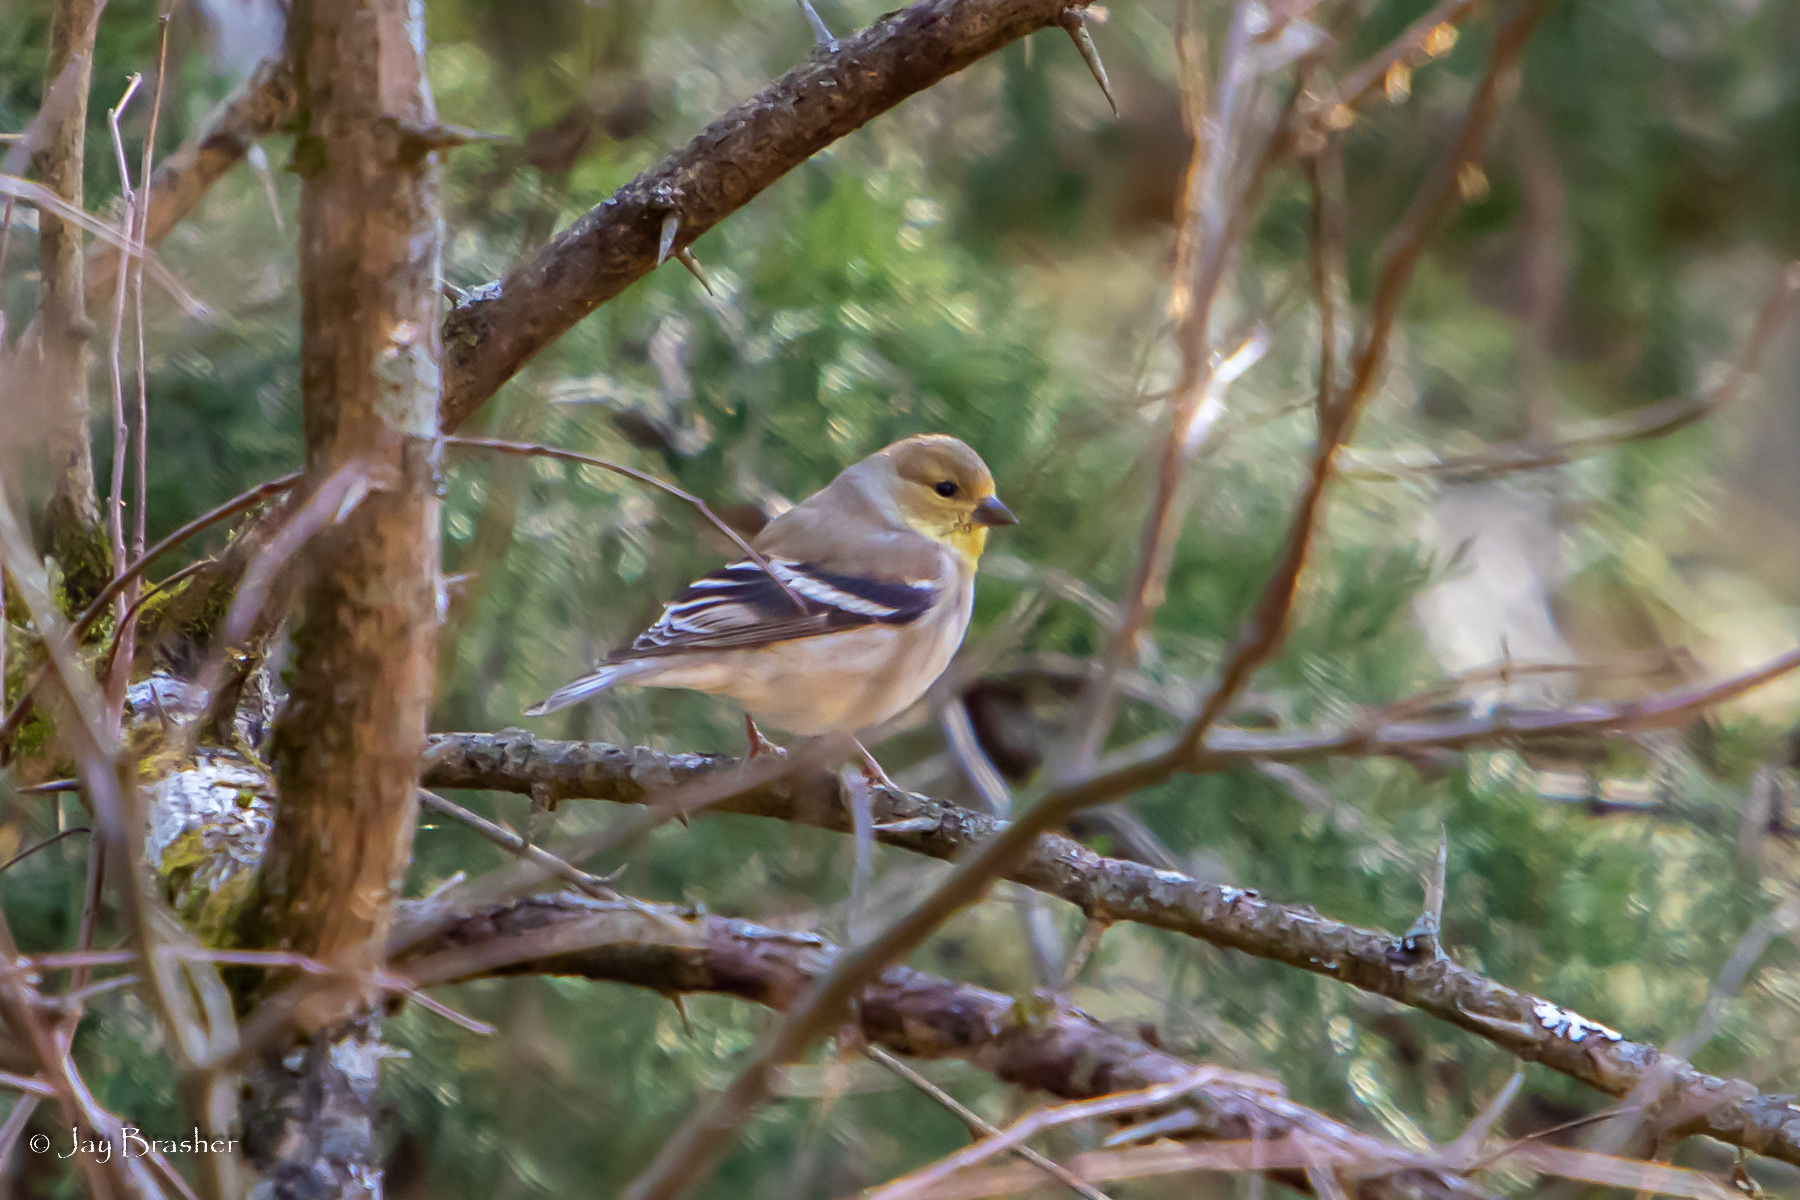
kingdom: Animalia
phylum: Chordata
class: Aves
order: Passeriformes
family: Fringillidae
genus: Spinus
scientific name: Spinus tristis
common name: American goldfinch
